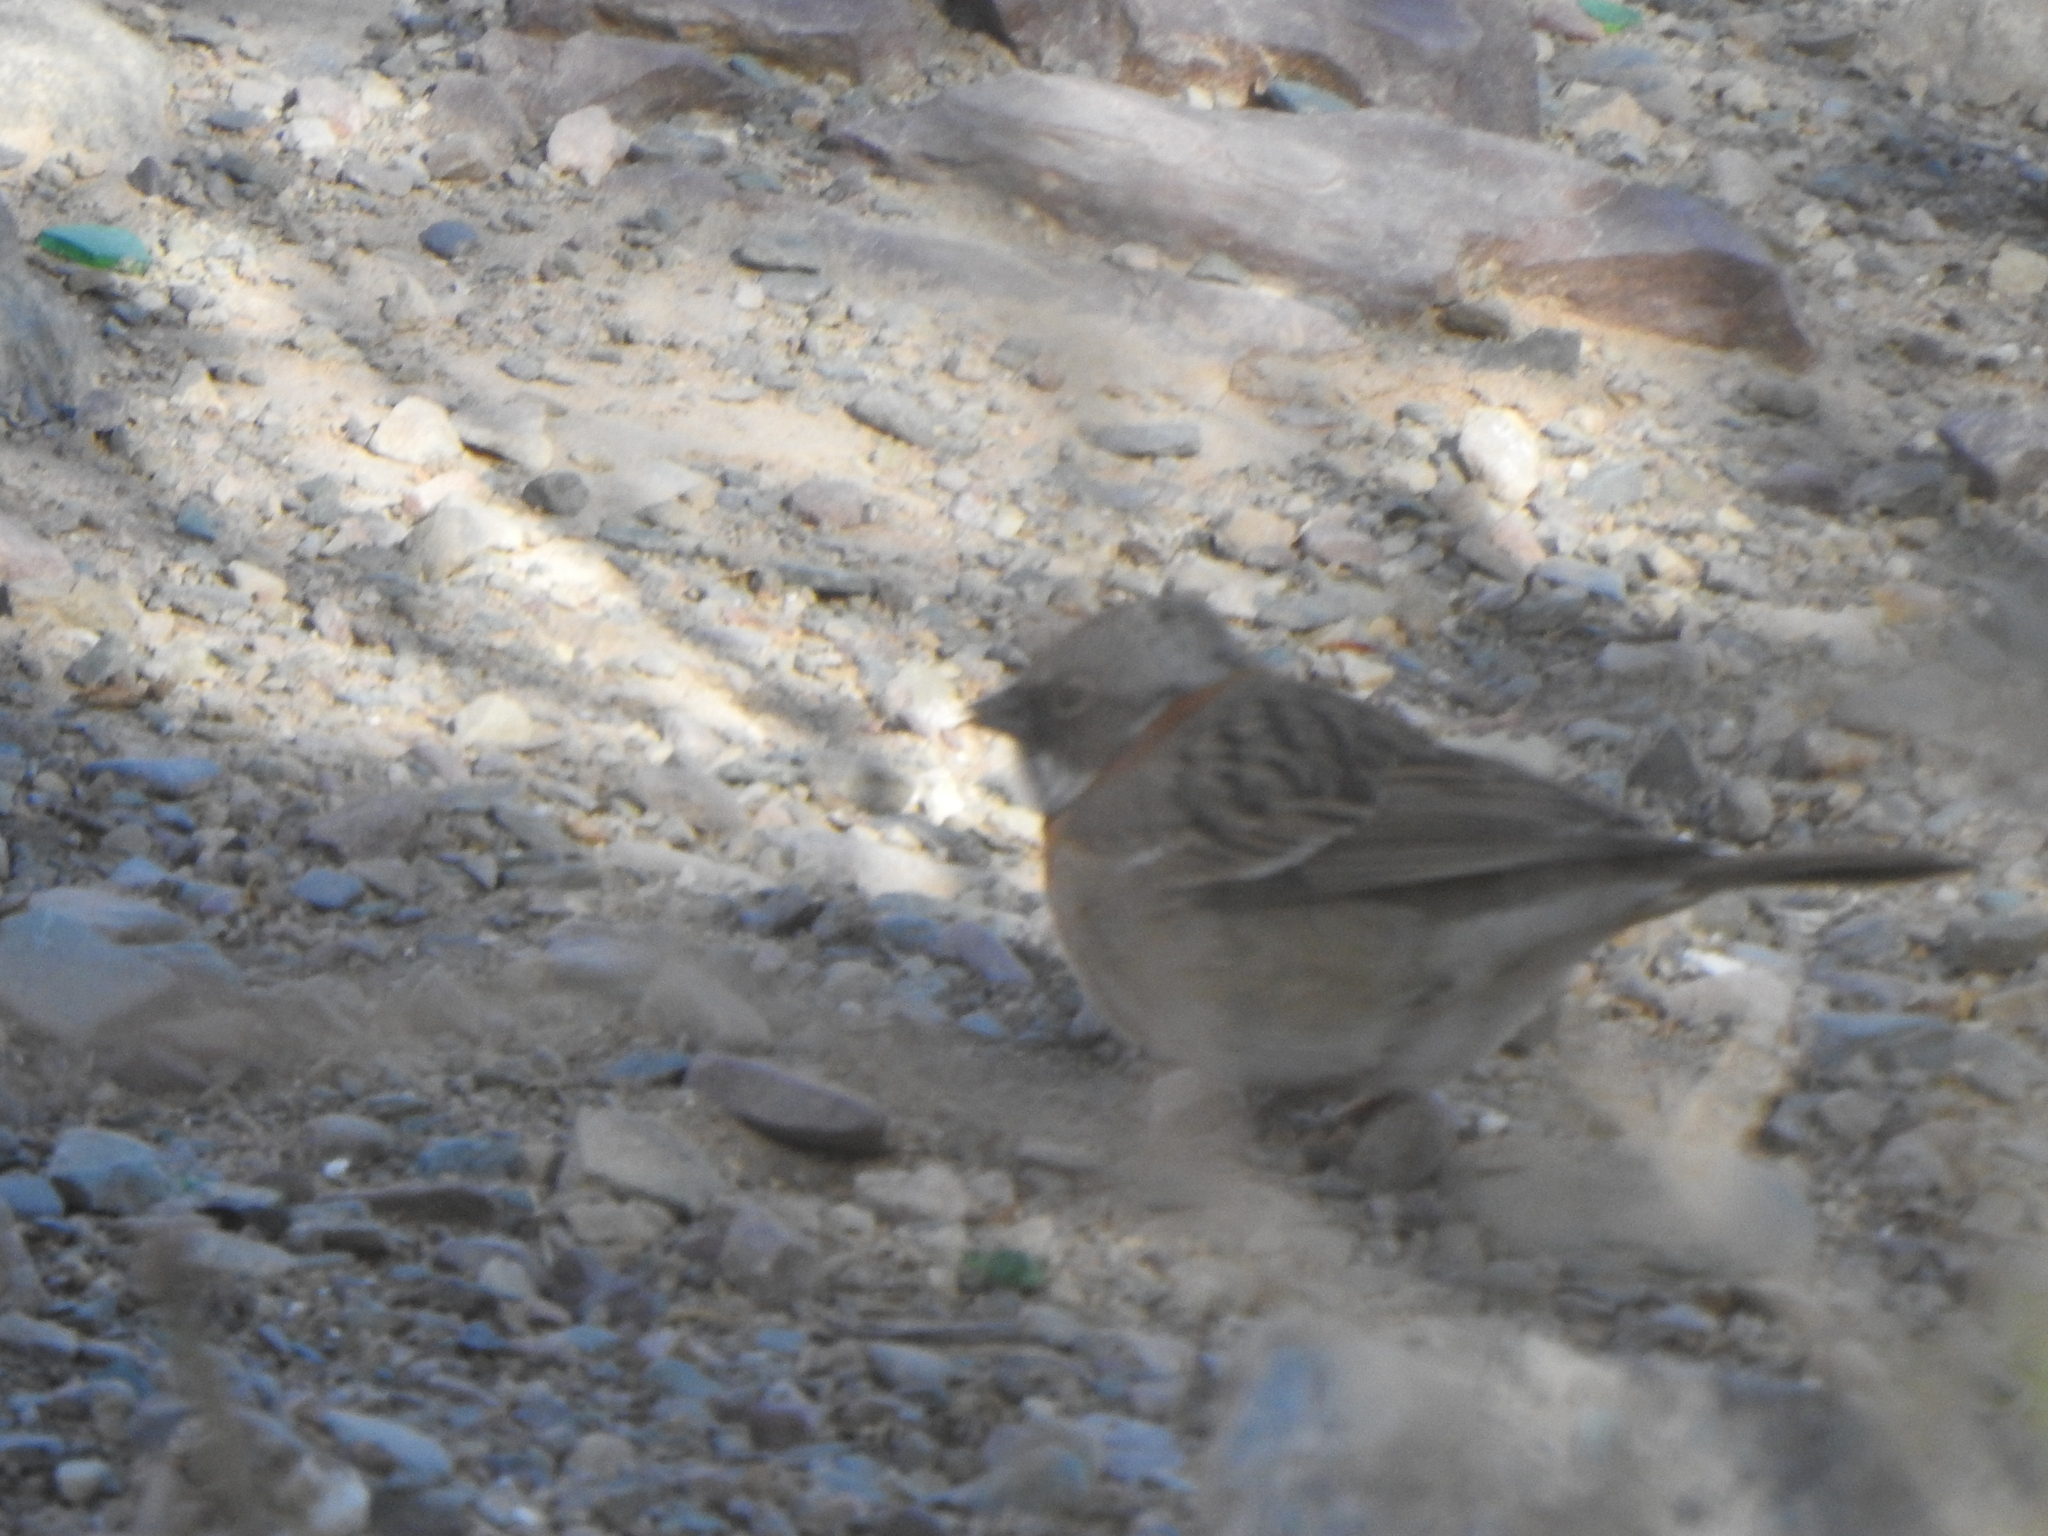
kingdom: Animalia
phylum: Chordata
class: Aves
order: Passeriformes
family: Passerellidae
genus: Zonotrichia
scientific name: Zonotrichia capensis
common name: Rufous-collared sparrow
